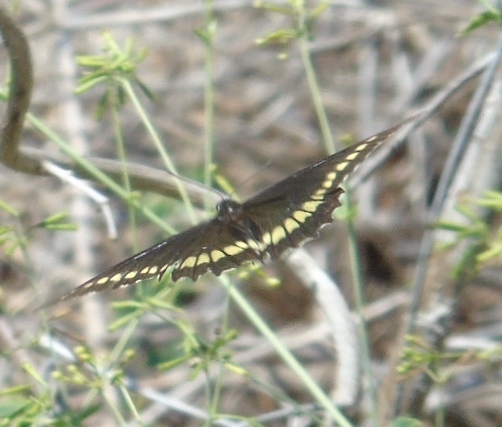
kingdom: Animalia
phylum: Arthropoda
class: Insecta
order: Lepidoptera
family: Papilionidae
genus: Battus
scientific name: Battus polydamas
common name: Polydamas swallowtail
